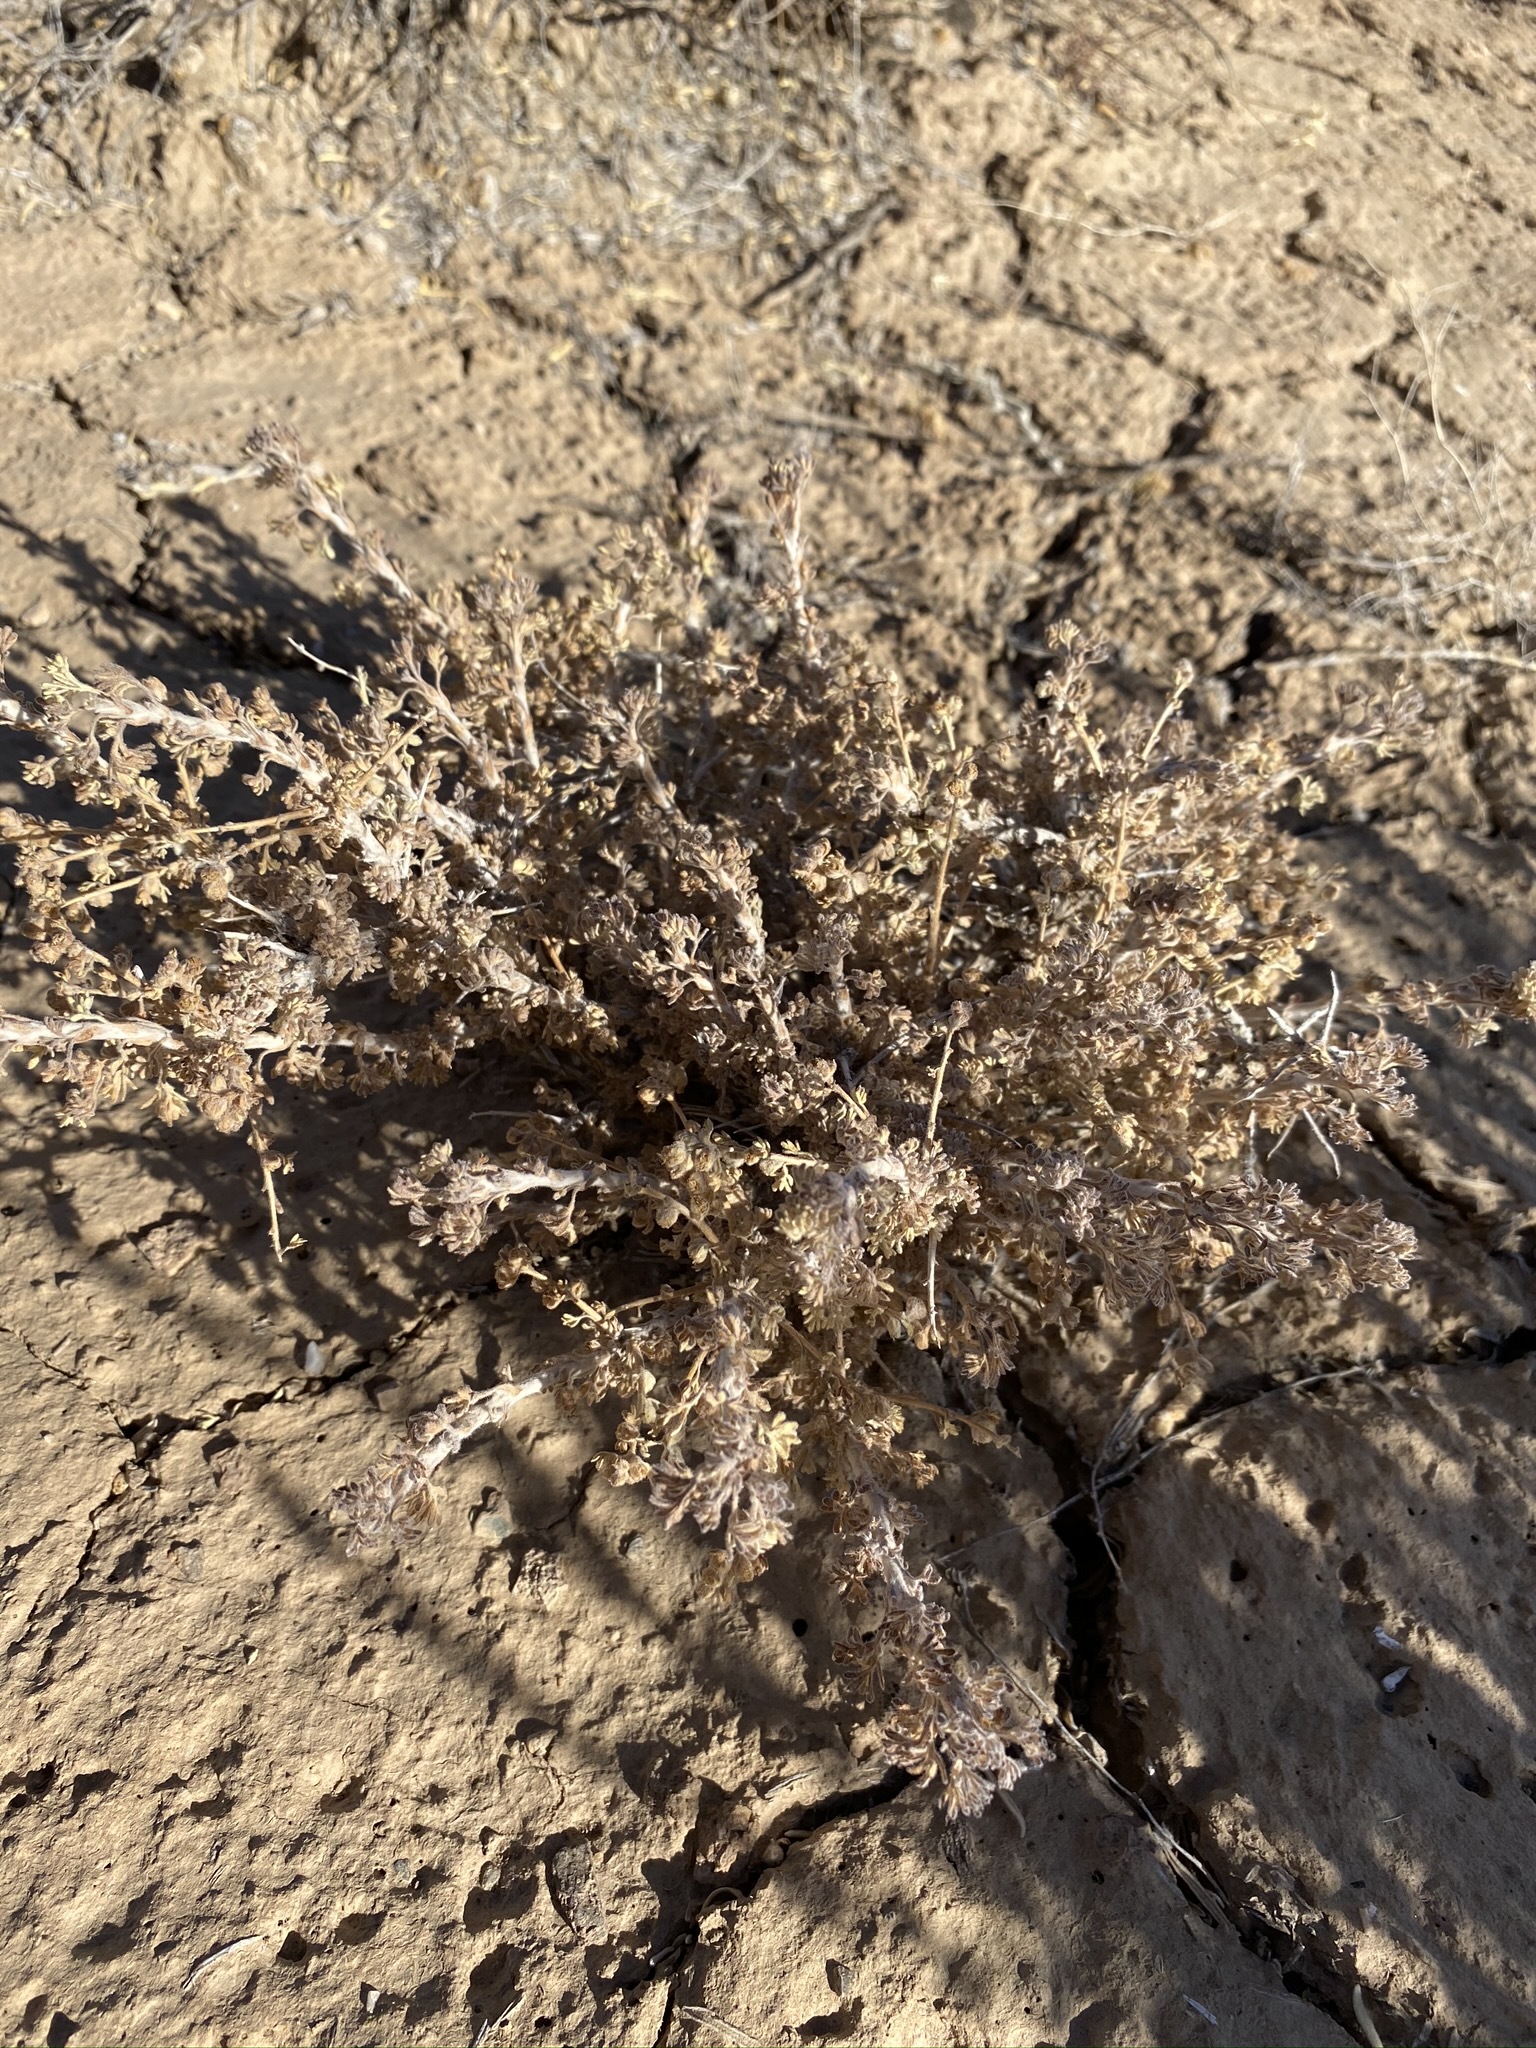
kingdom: Plantae
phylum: Tracheophyta
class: Magnoliopsida
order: Asterales
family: Asteraceae
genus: Artemisia
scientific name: Artemisia spinescens
